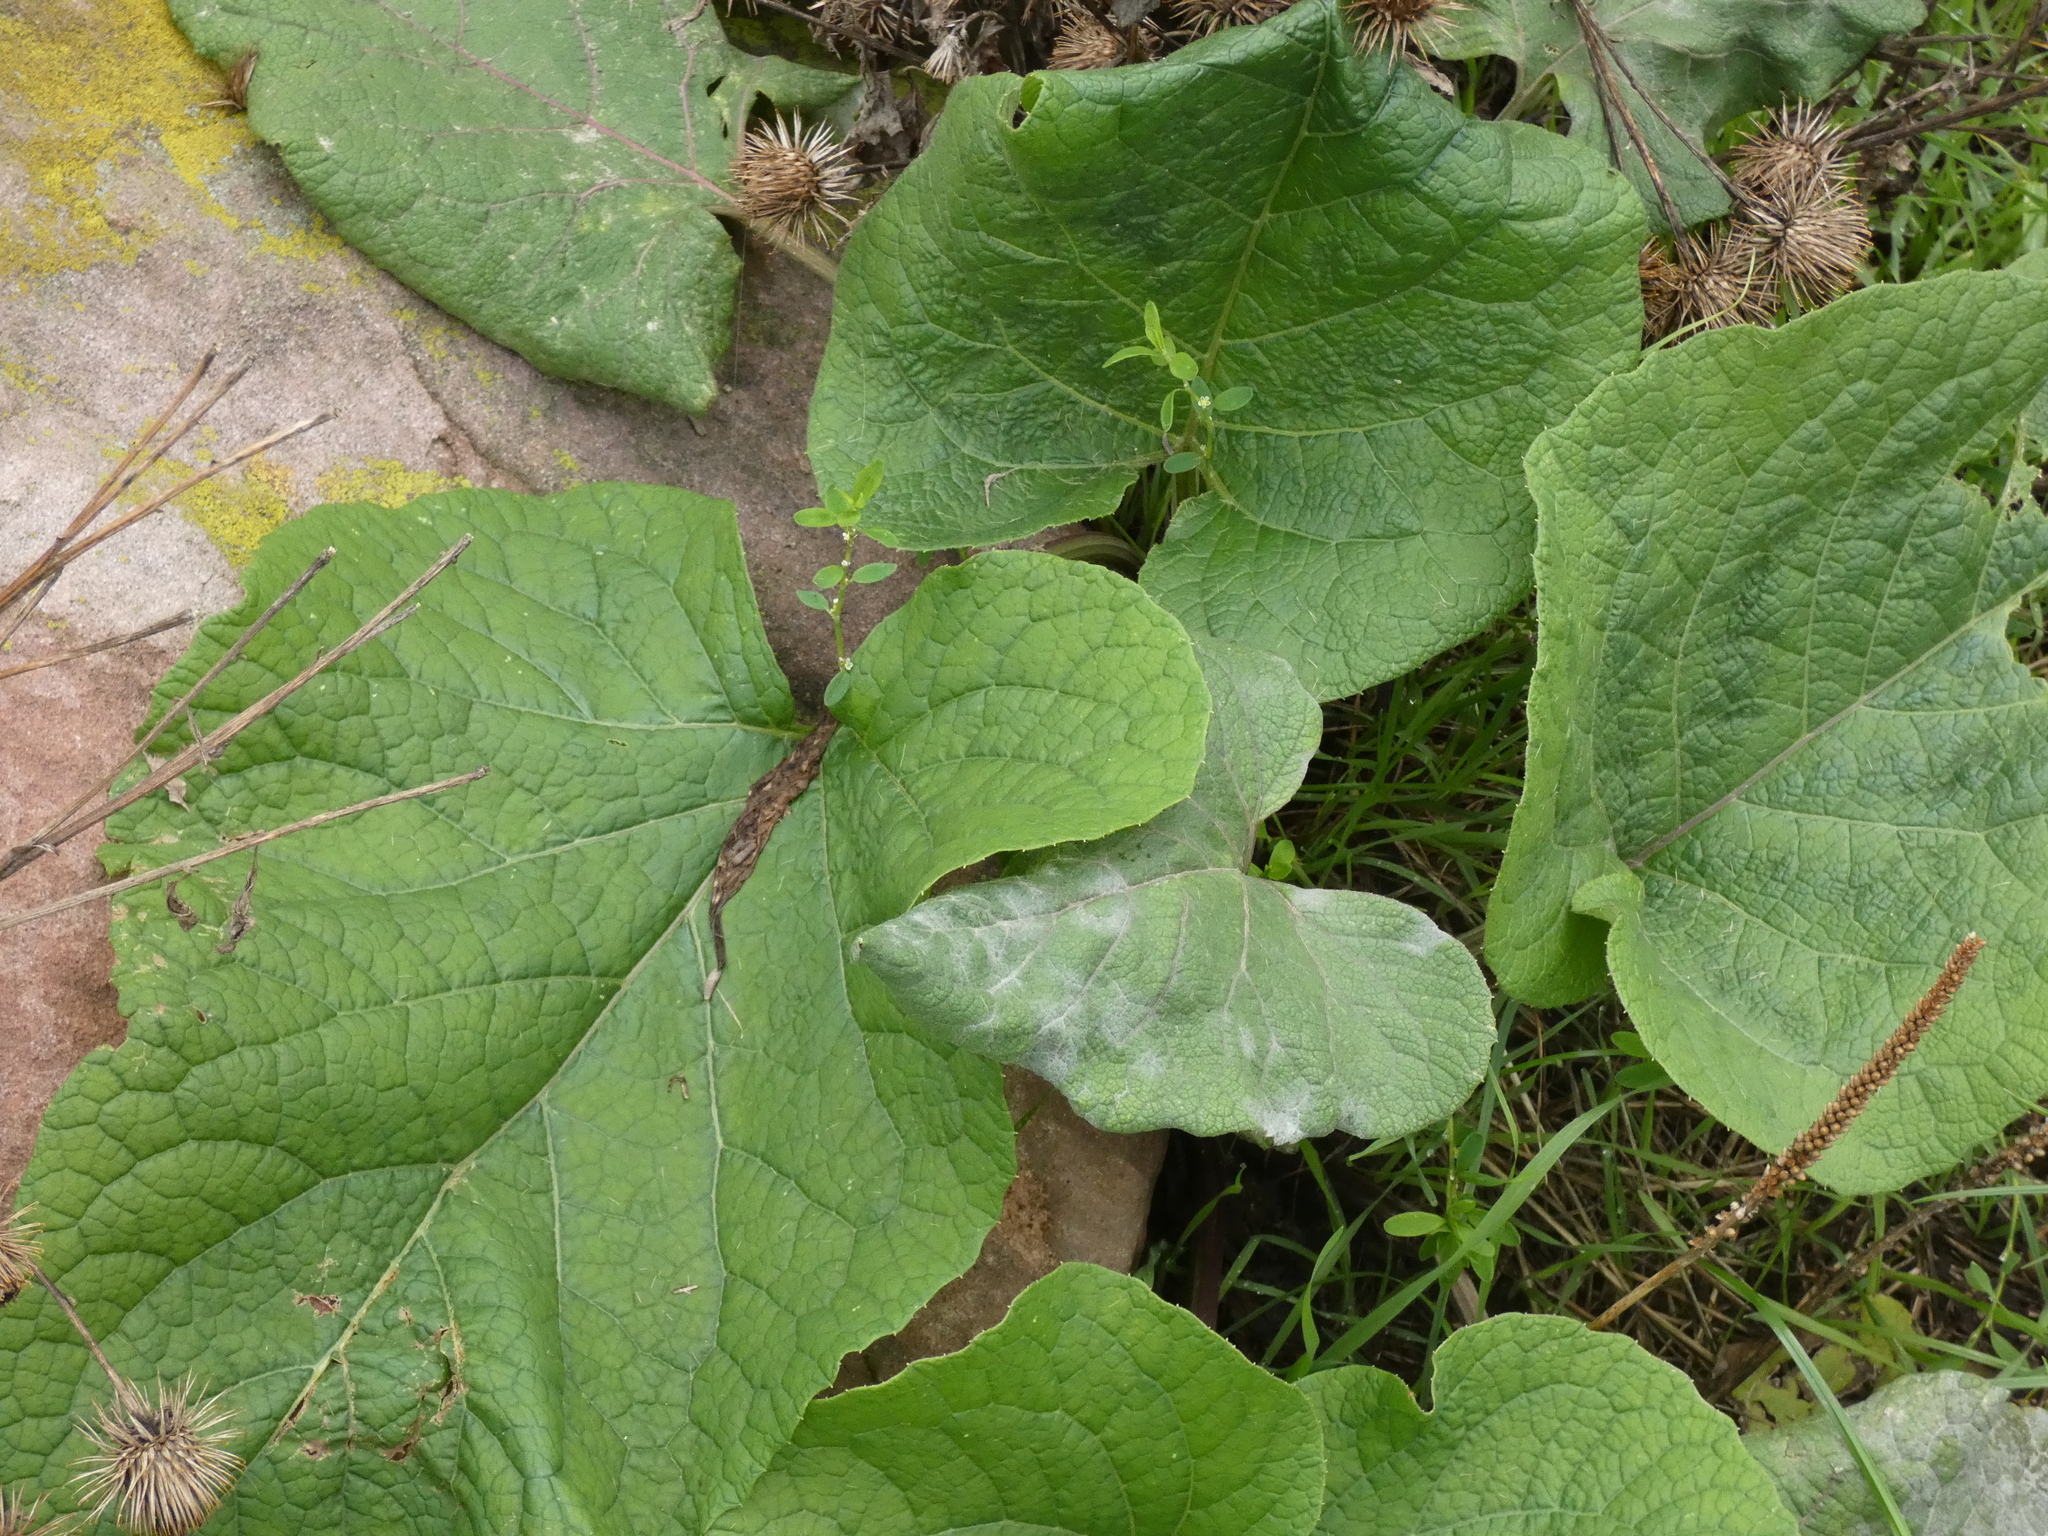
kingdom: Plantae
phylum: Tracheophyta
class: Magnoliopsida
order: Asterales
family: Asteraceae
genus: Arctium
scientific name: Arctium lappa
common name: Greater burdock
